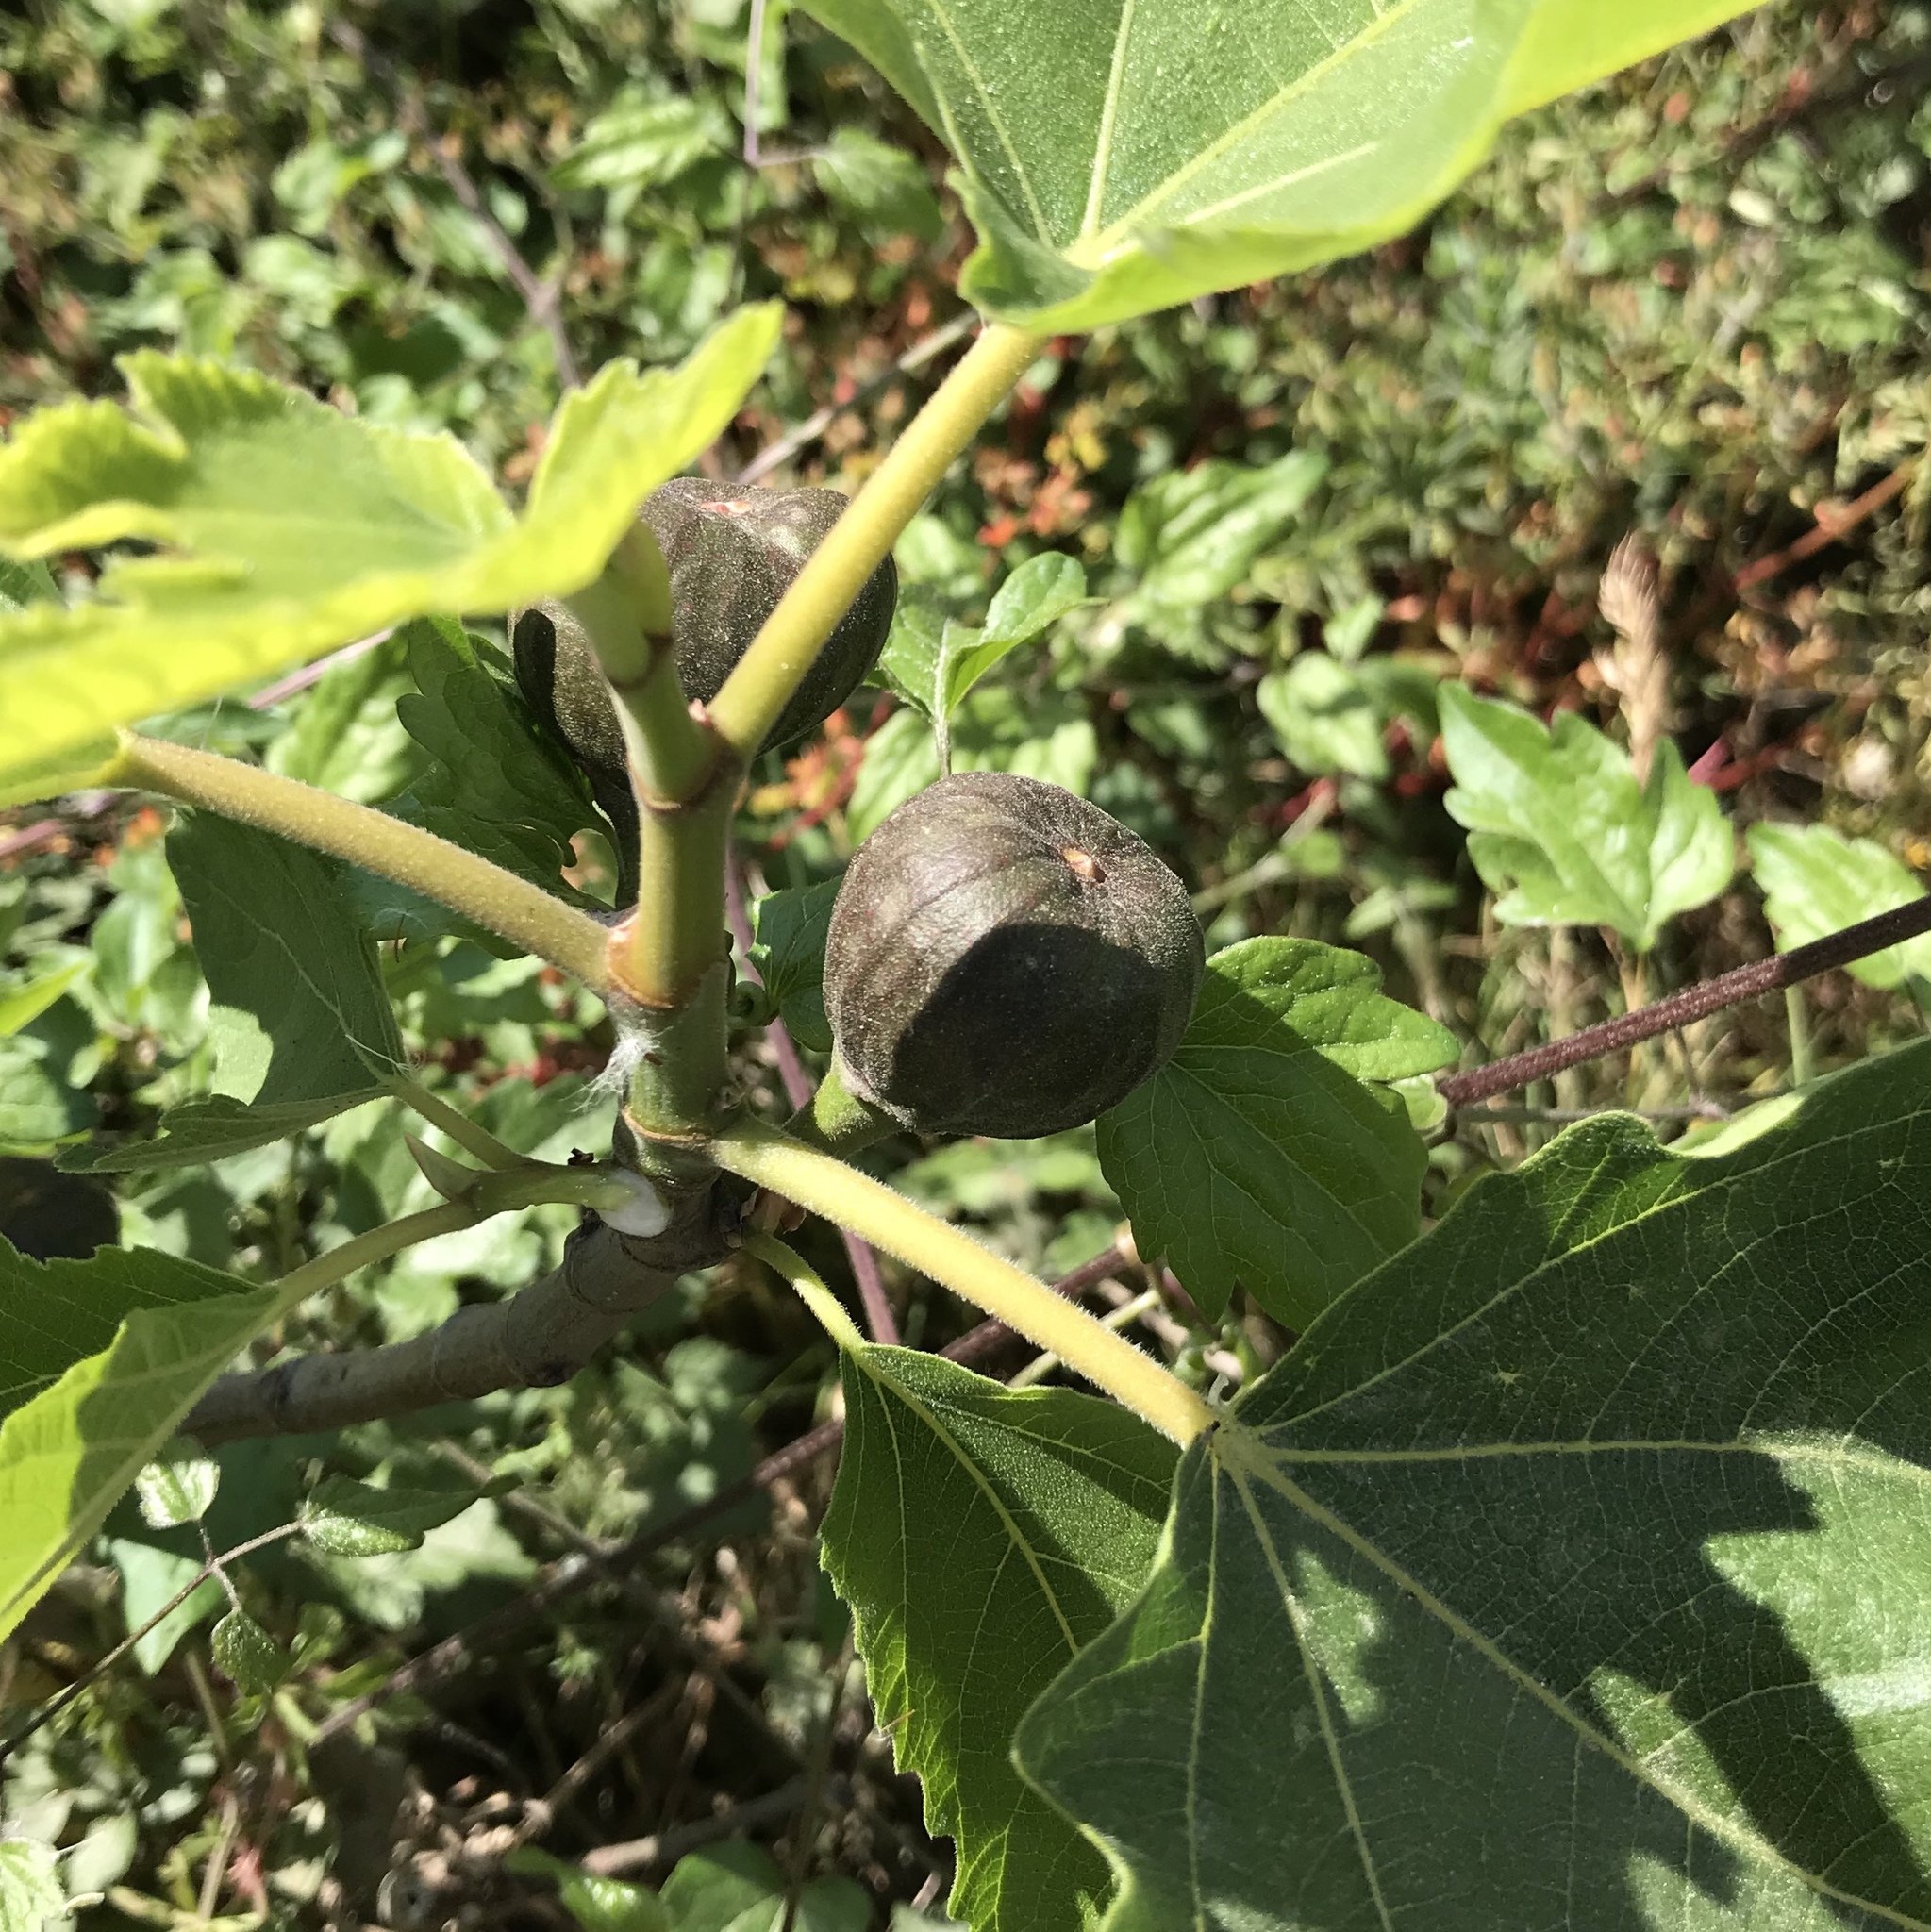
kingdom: Plantae
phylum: Tracheophyta
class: Magnoliopsida
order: Rosales
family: Moraceae
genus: Ficus
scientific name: Ficus carica
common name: Fig
